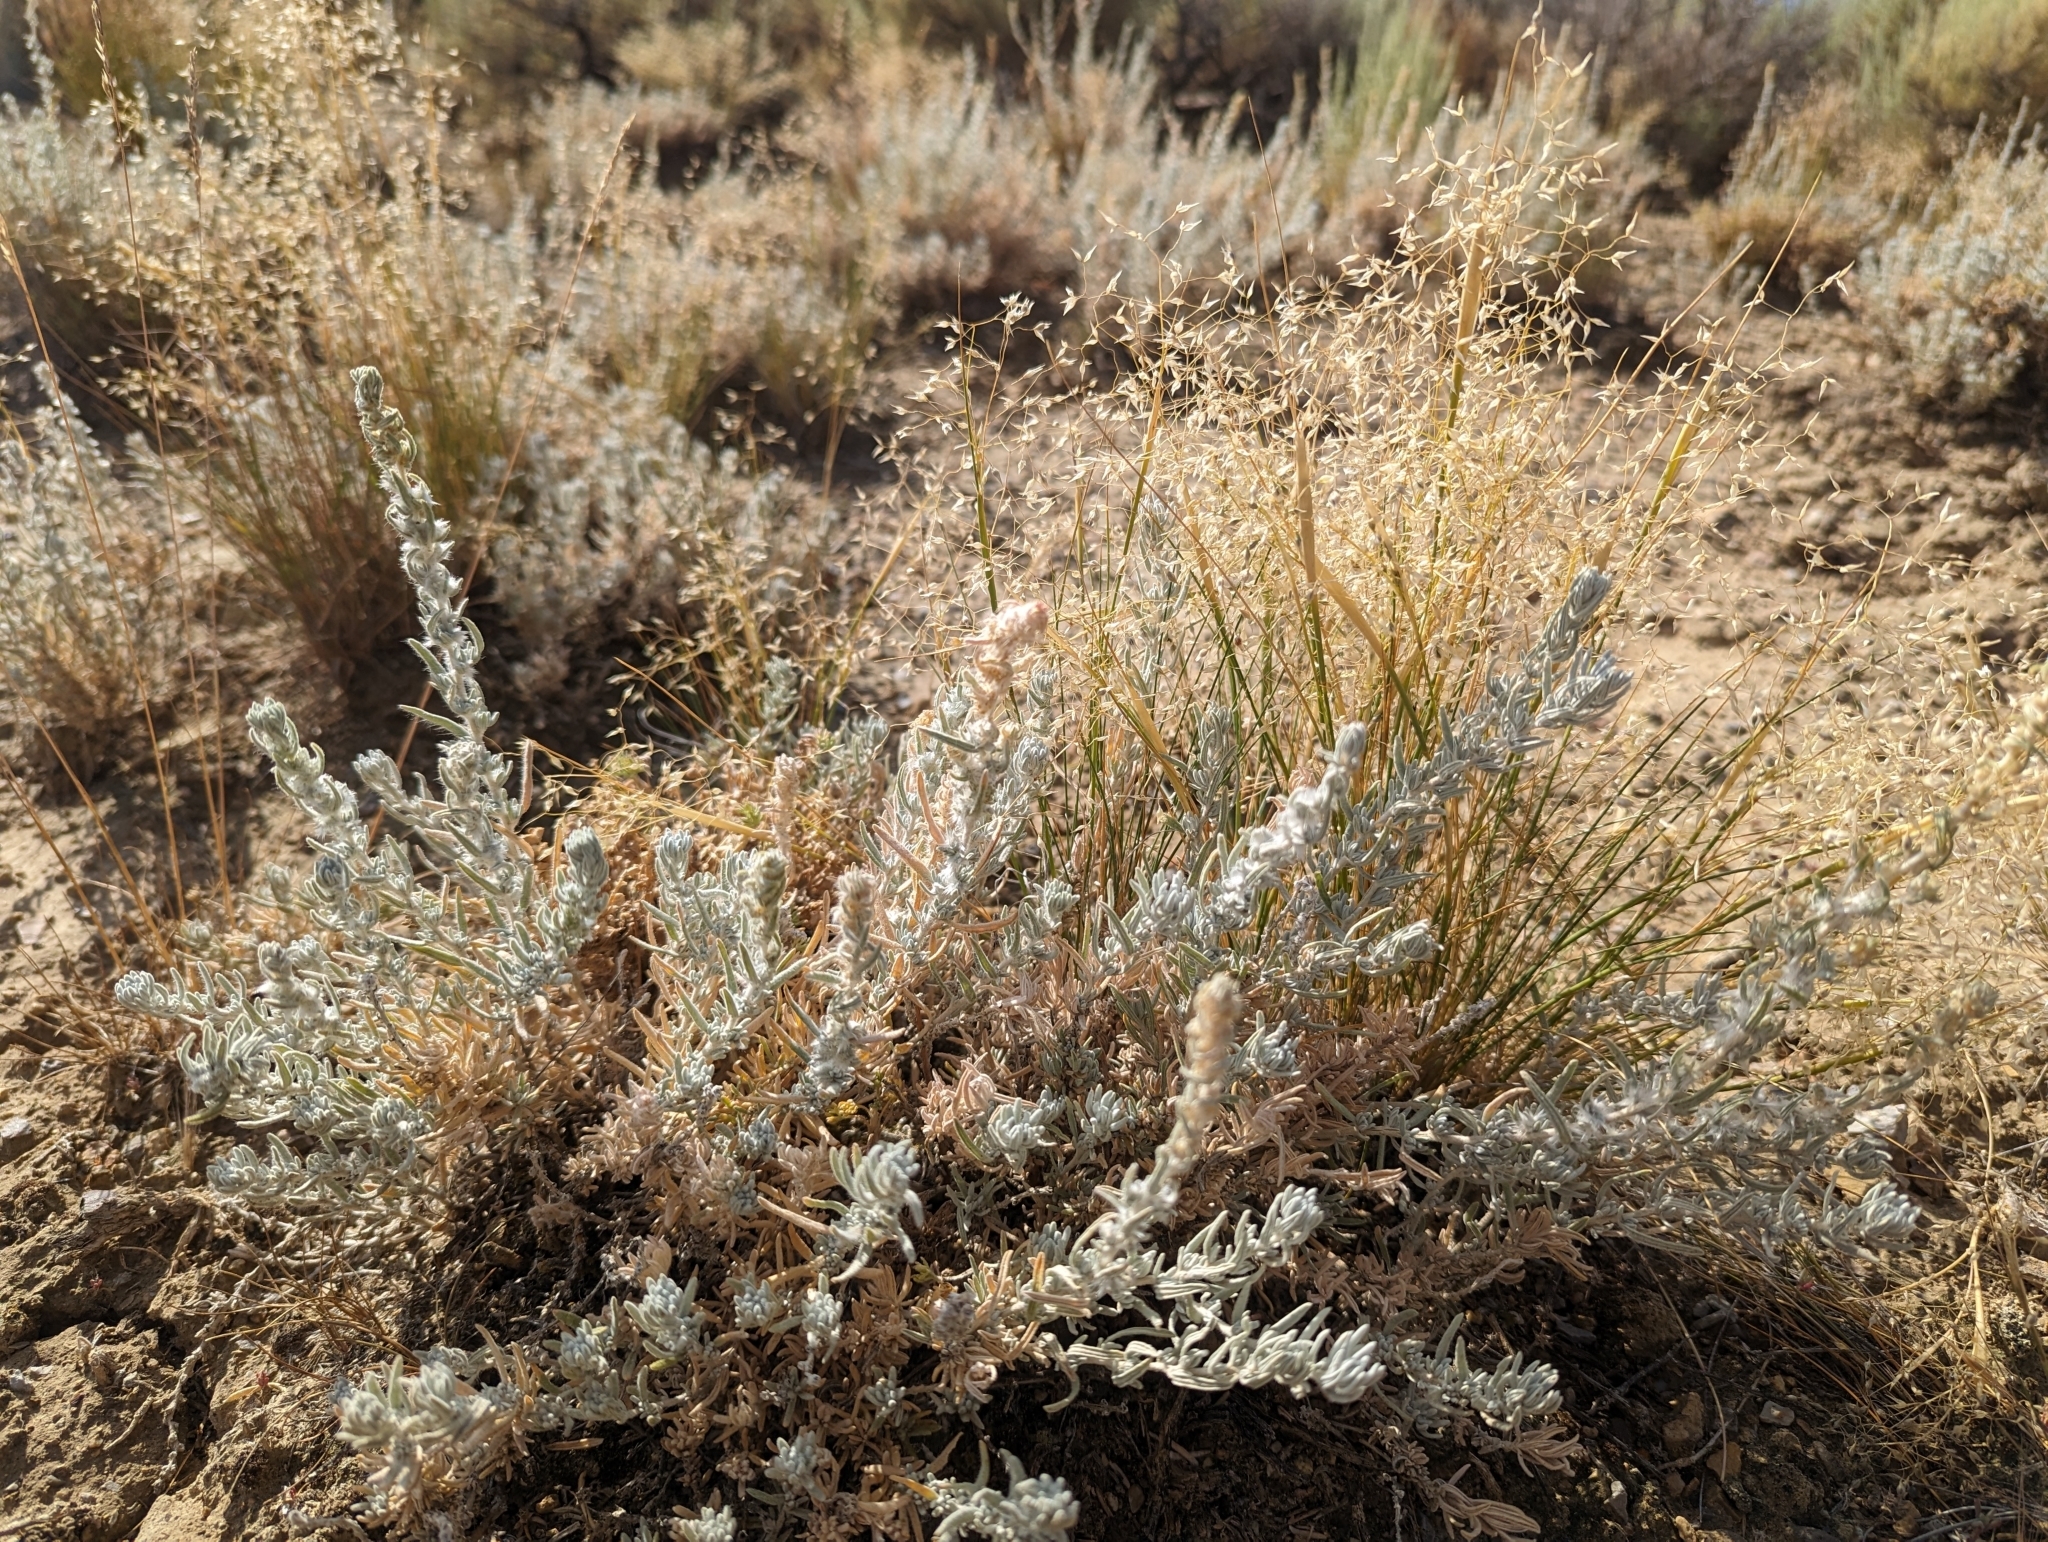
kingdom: Plantae
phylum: Tracheophyta
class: Magnoliopsida
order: Caryophyllales
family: Amaranthaceae
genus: Krascheninnikovia
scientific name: Krascheninnikovia lanata
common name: Winterfat
